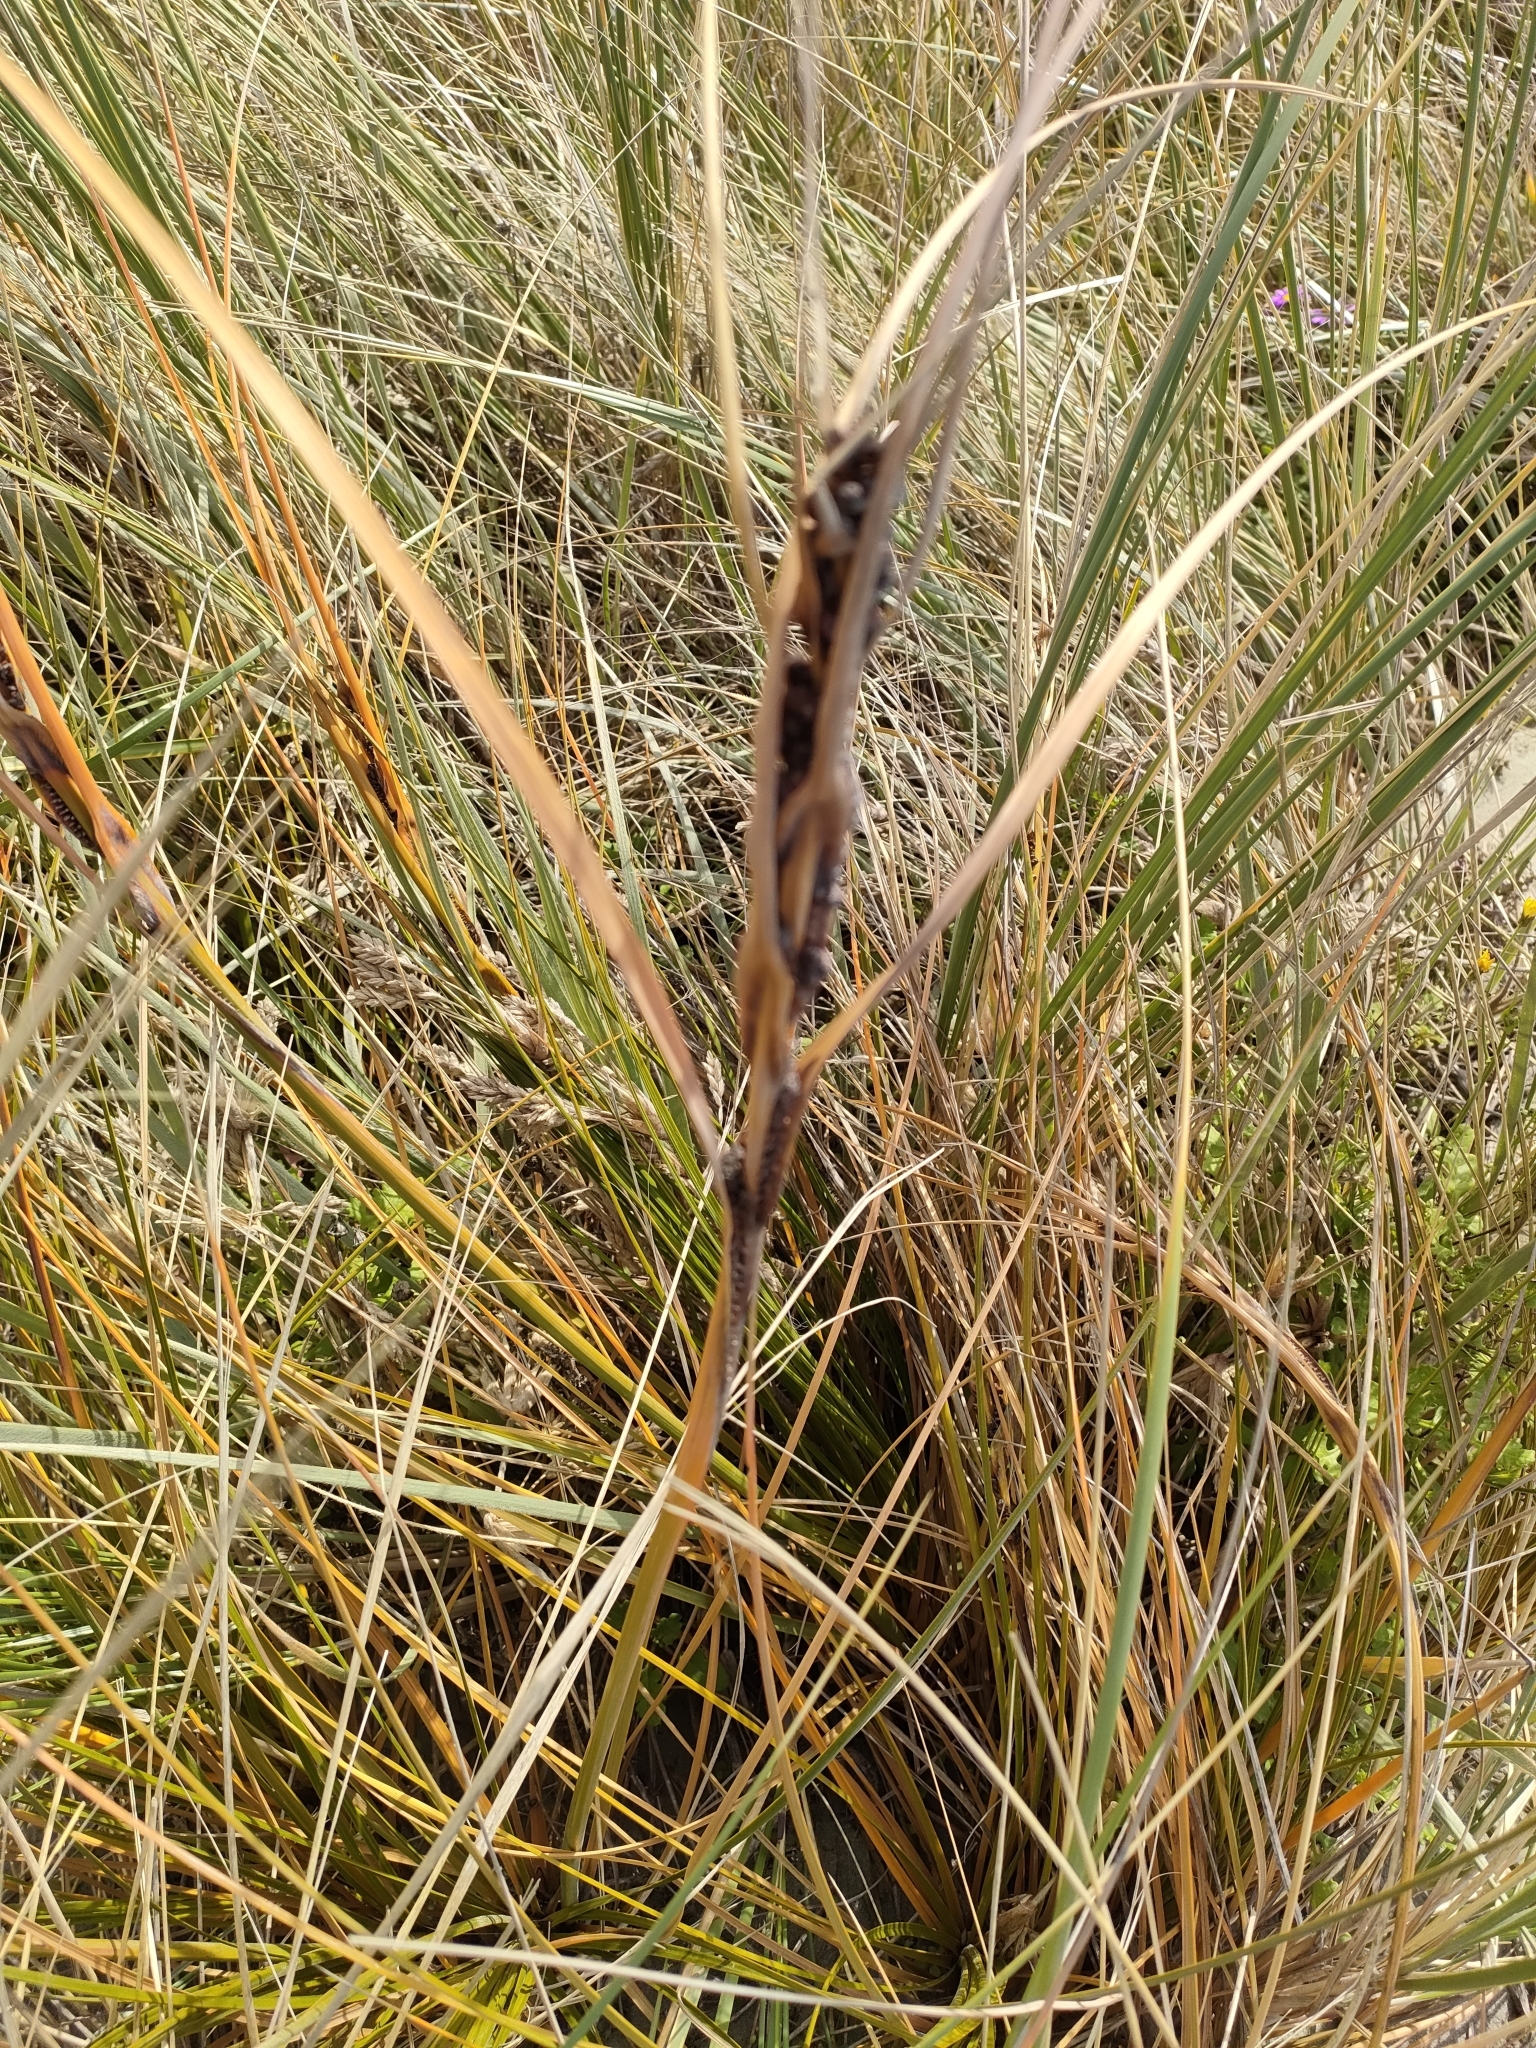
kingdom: Plantae
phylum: Tracheophyta
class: Liliopsida
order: Poales
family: Cyperaceae
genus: Ficinia
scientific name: Ficinia spiralis
